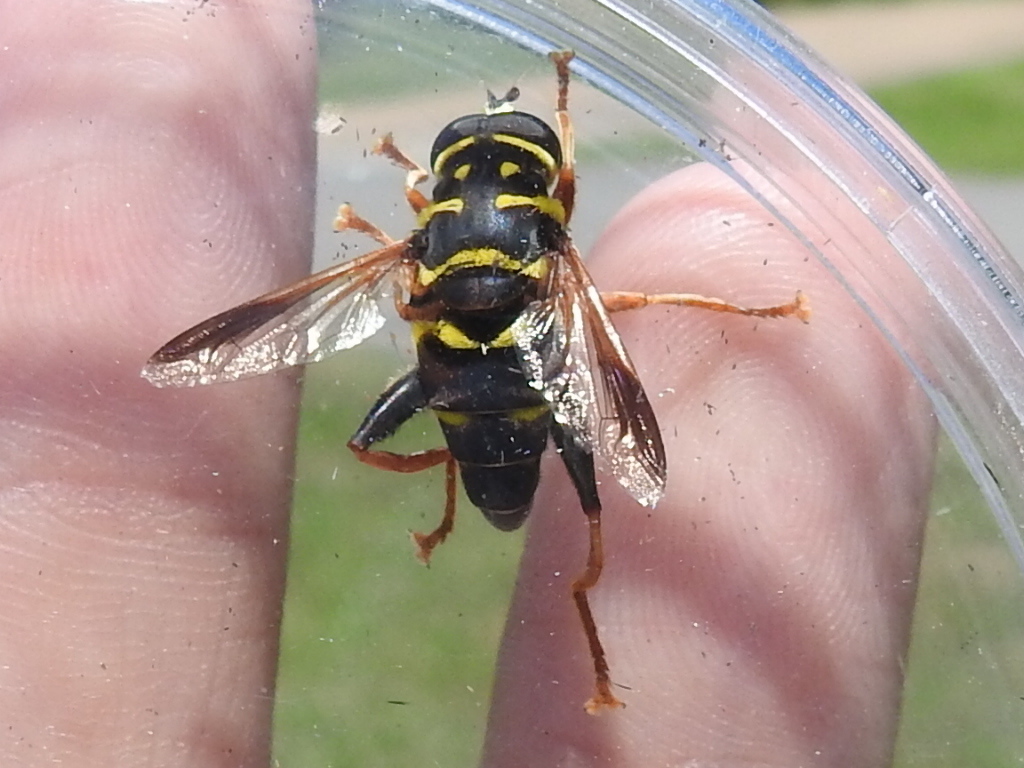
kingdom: Animalia
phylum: Arthropoda
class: Insecta
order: Diptera
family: Syrphidae
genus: Meromacrus
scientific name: Meromacrus acutus
